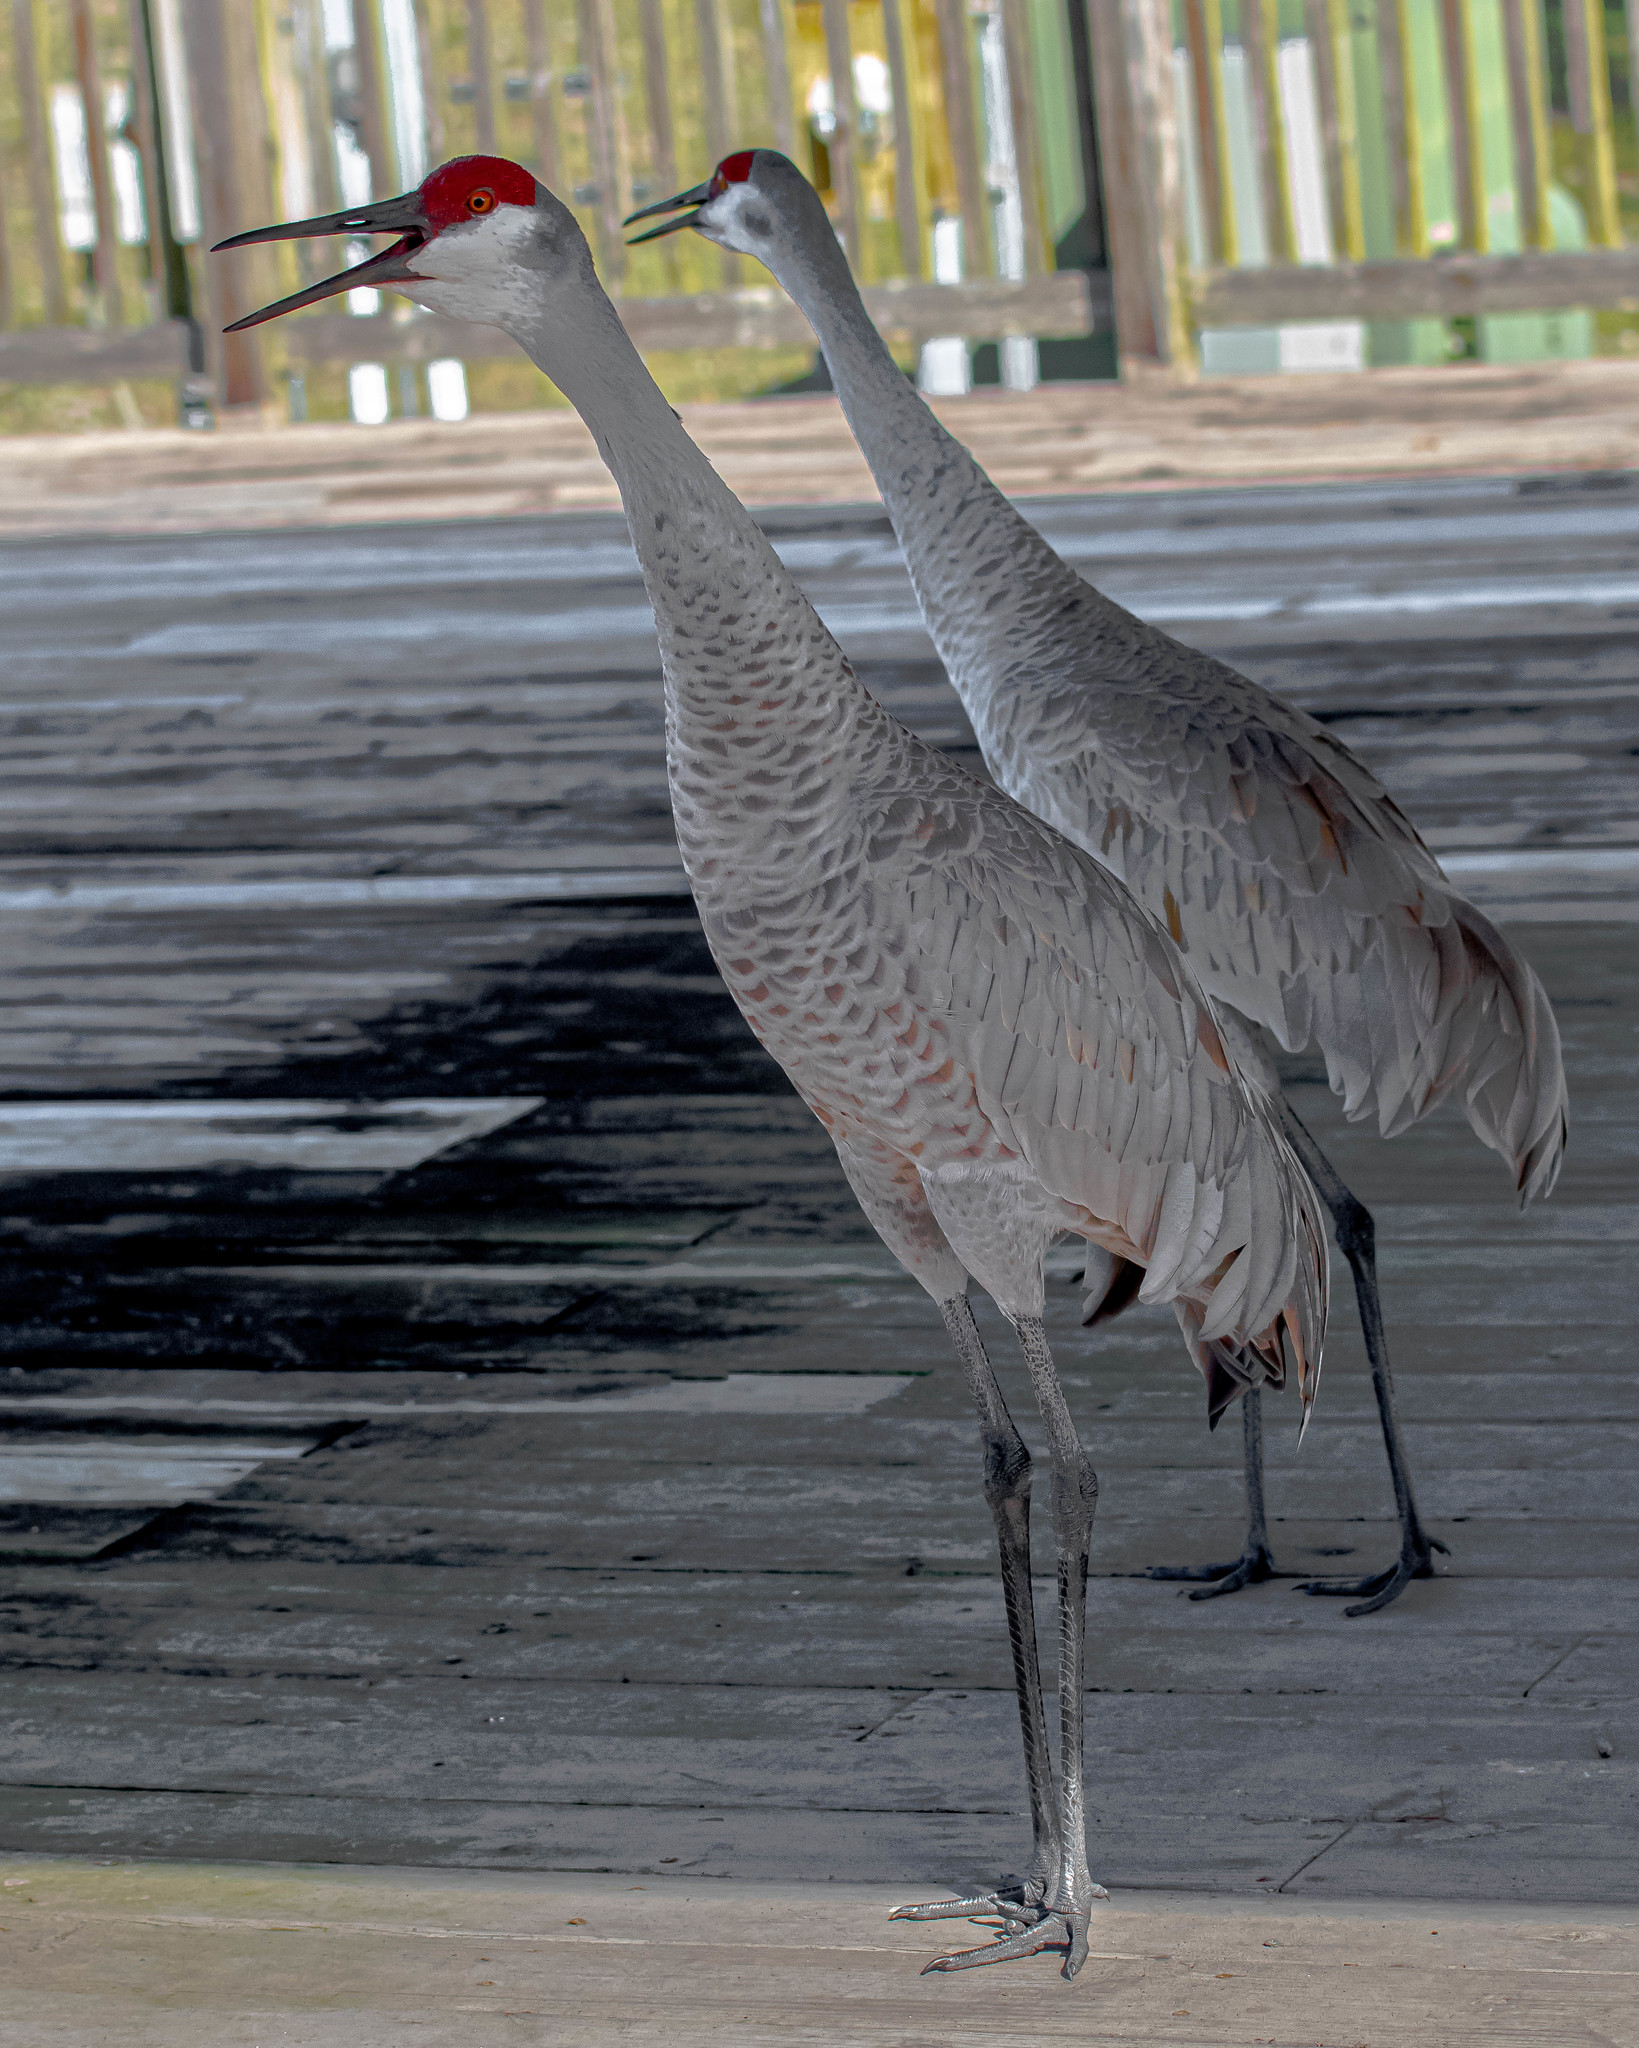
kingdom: Animalia
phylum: Chordata
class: Aves
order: Gruiformes
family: Gruidae
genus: Grus
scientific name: Grus canadensis
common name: Sandhill crane
